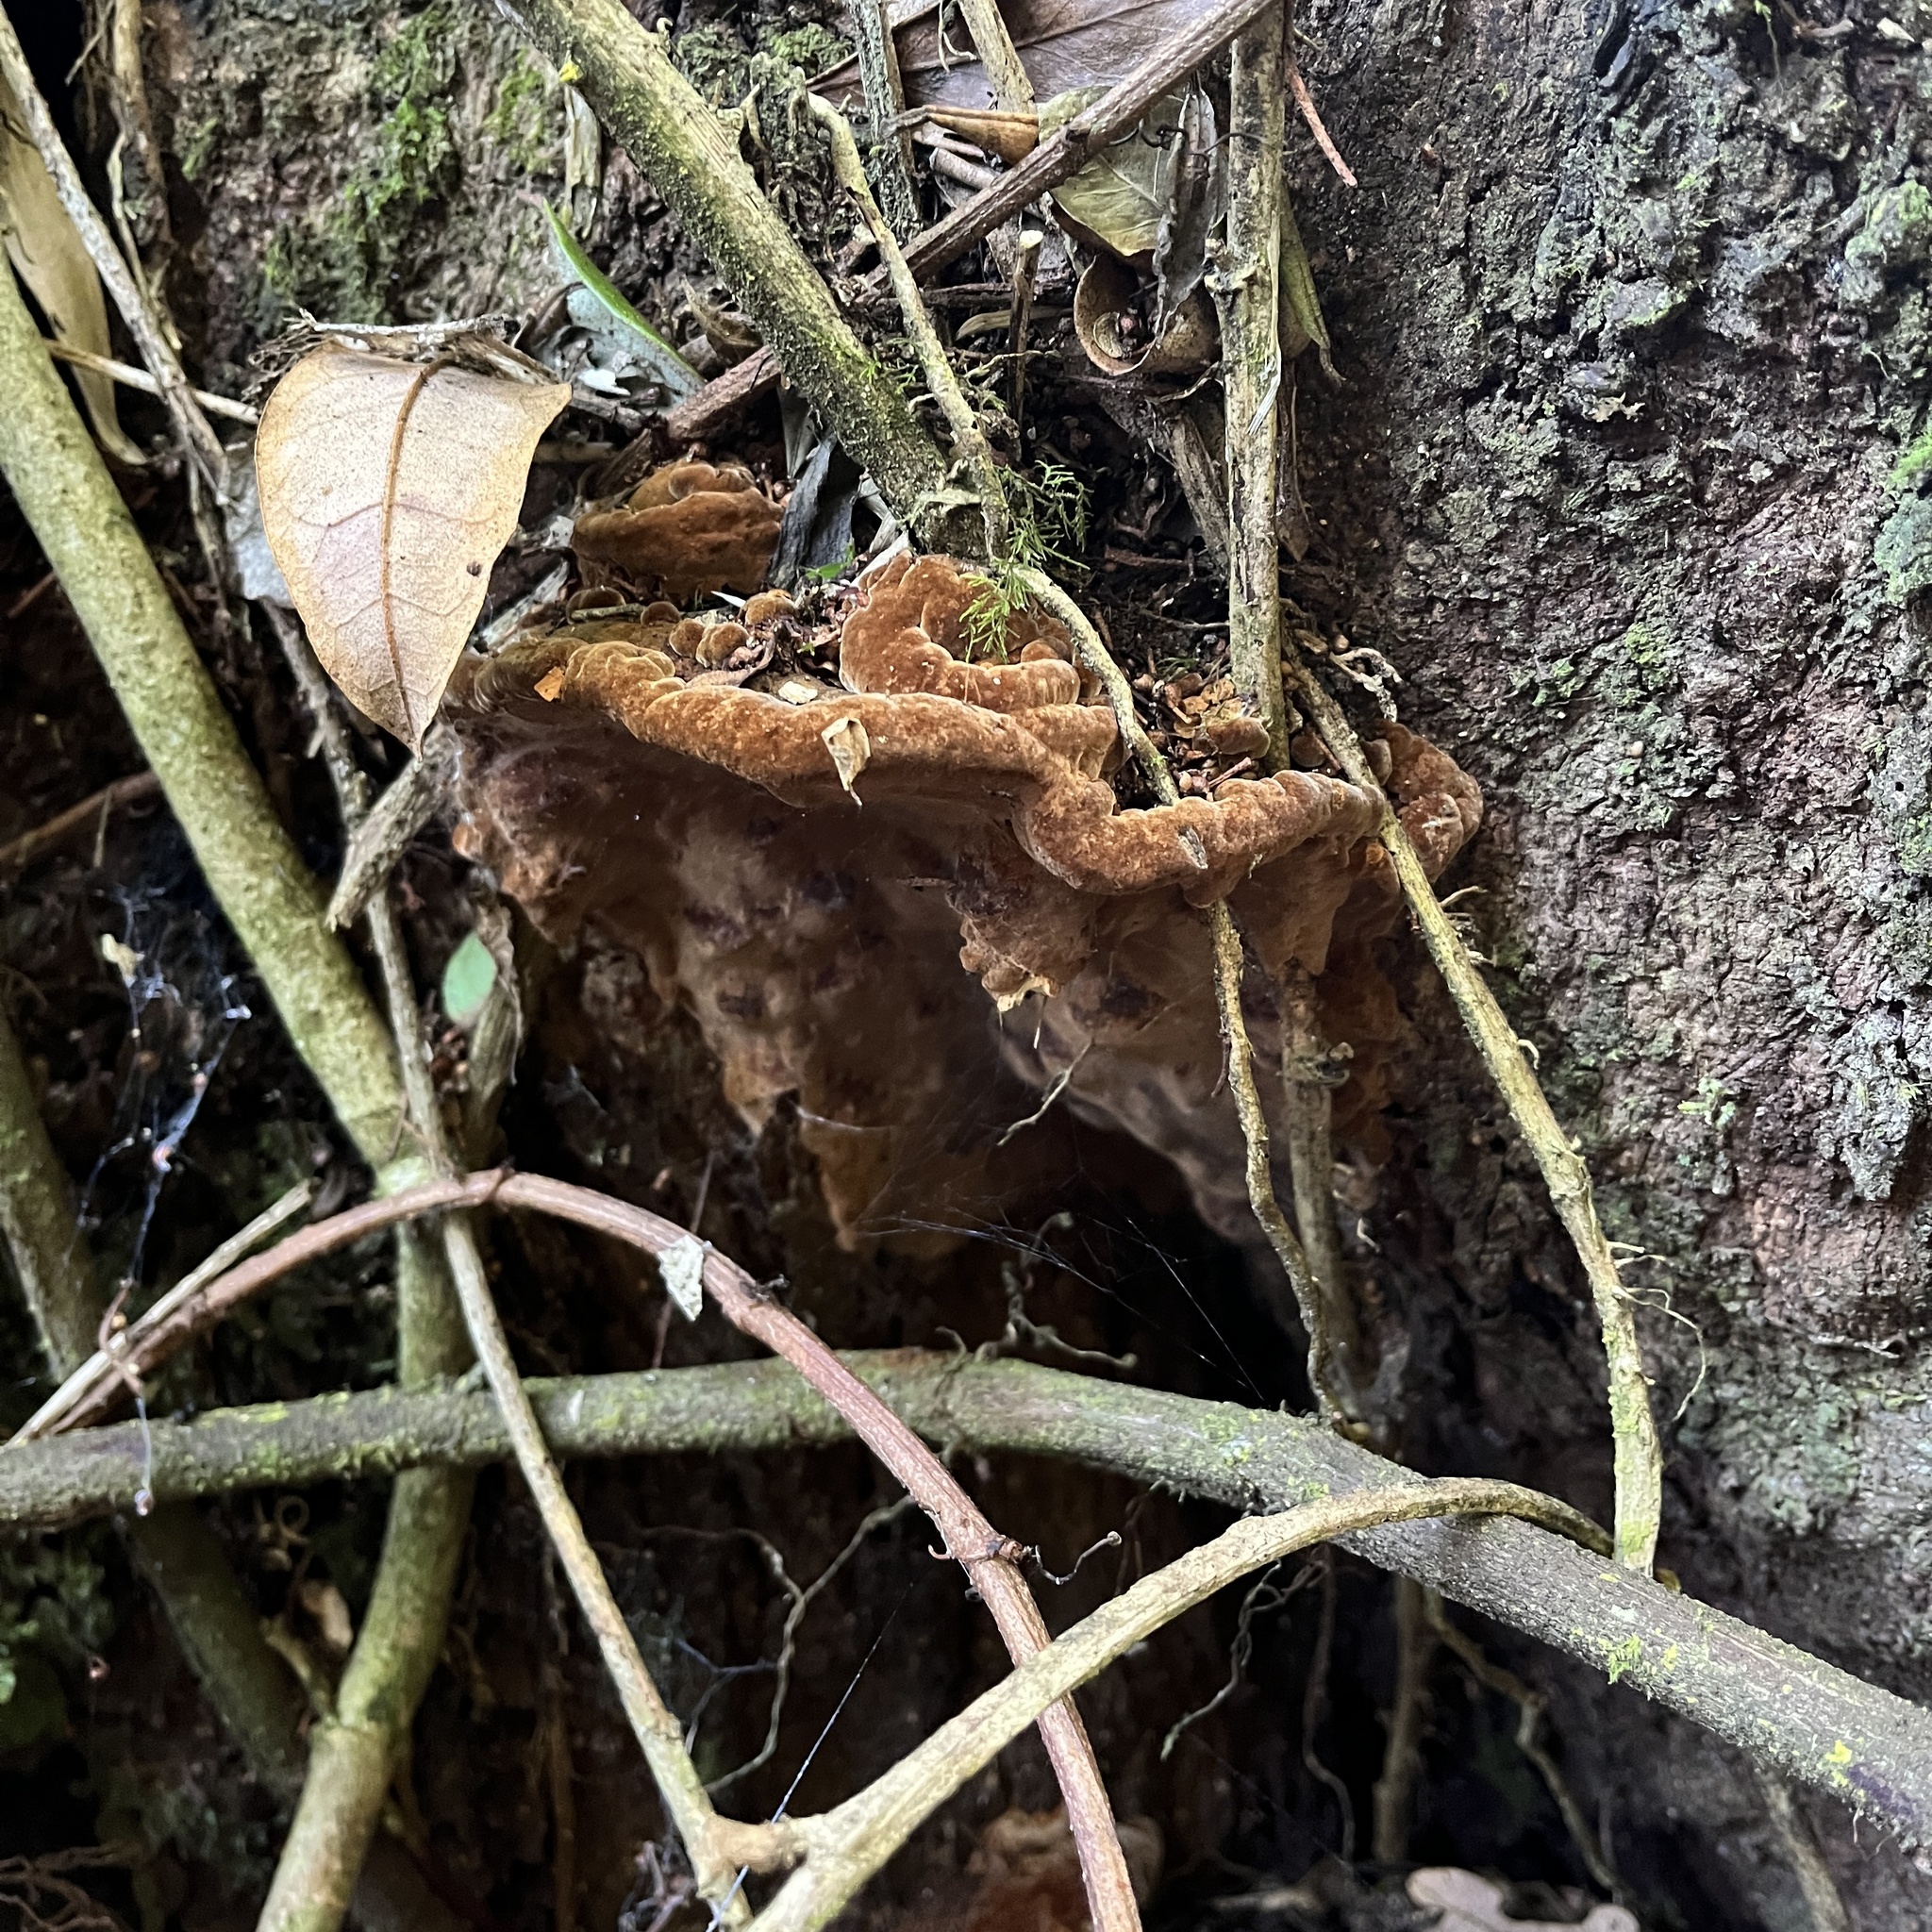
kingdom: Fungi
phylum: Basidiomycota
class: Agaricomycetes
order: Hymenochaetales
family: Hymenochaetaceae
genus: Fuscoporia
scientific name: Fuscoporia senex
